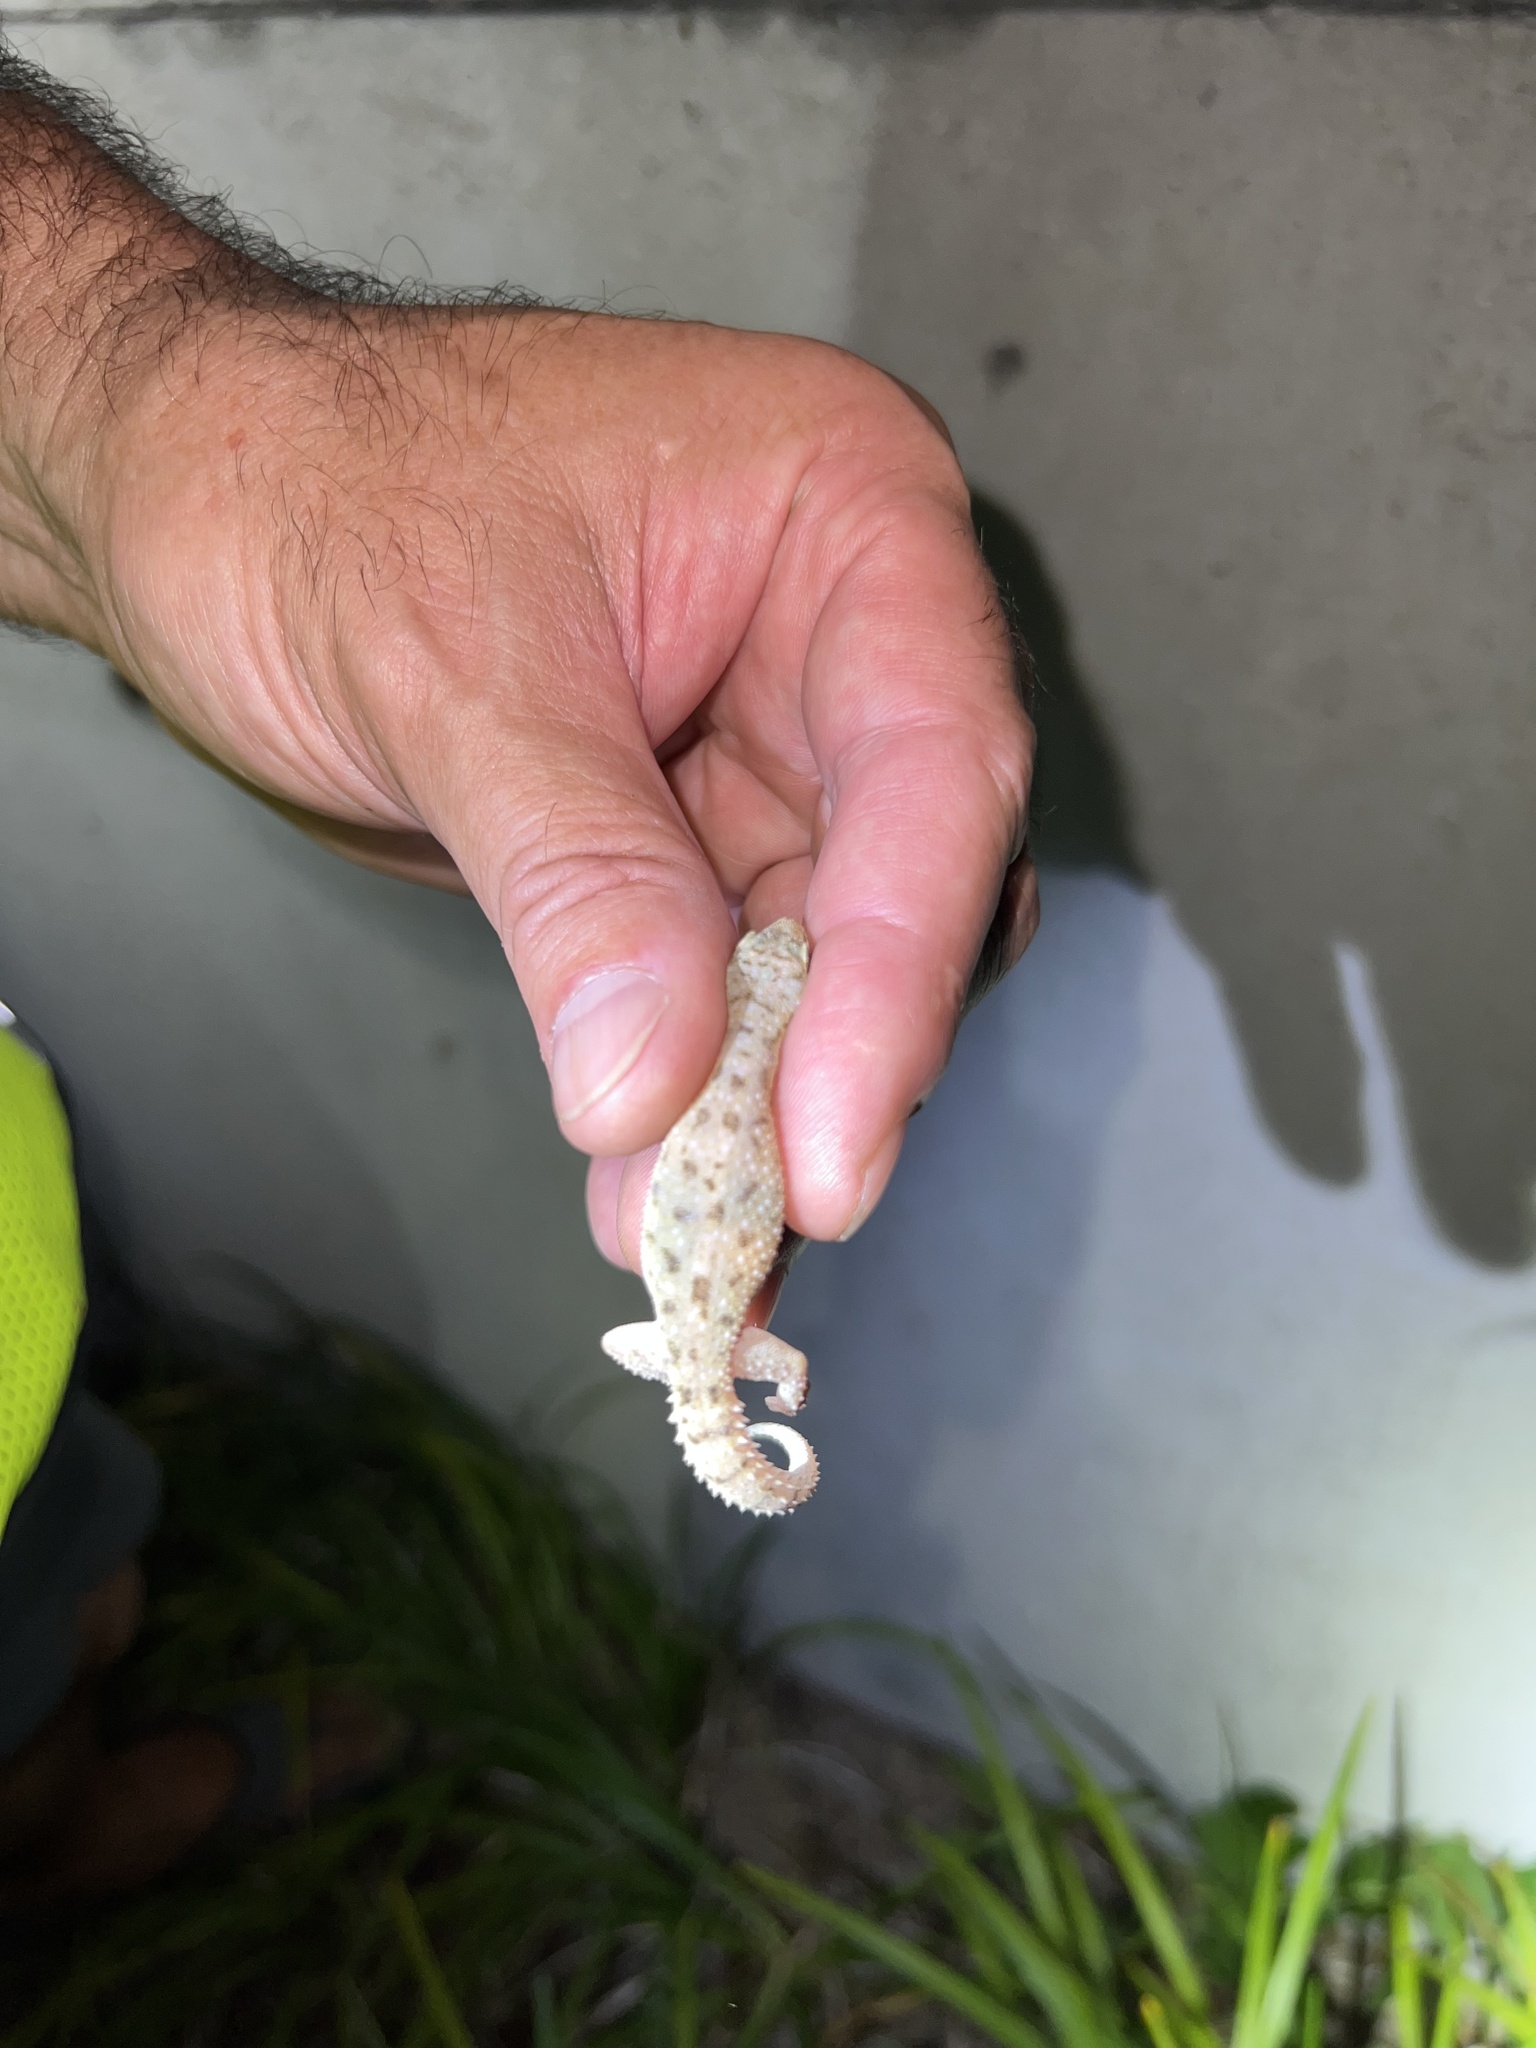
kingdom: Animalia
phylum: Chordata
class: Squamata
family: Gekkonidae
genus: Hemidactylus
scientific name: Hemidactylus parvimaculatus
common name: Spotted house gecko
